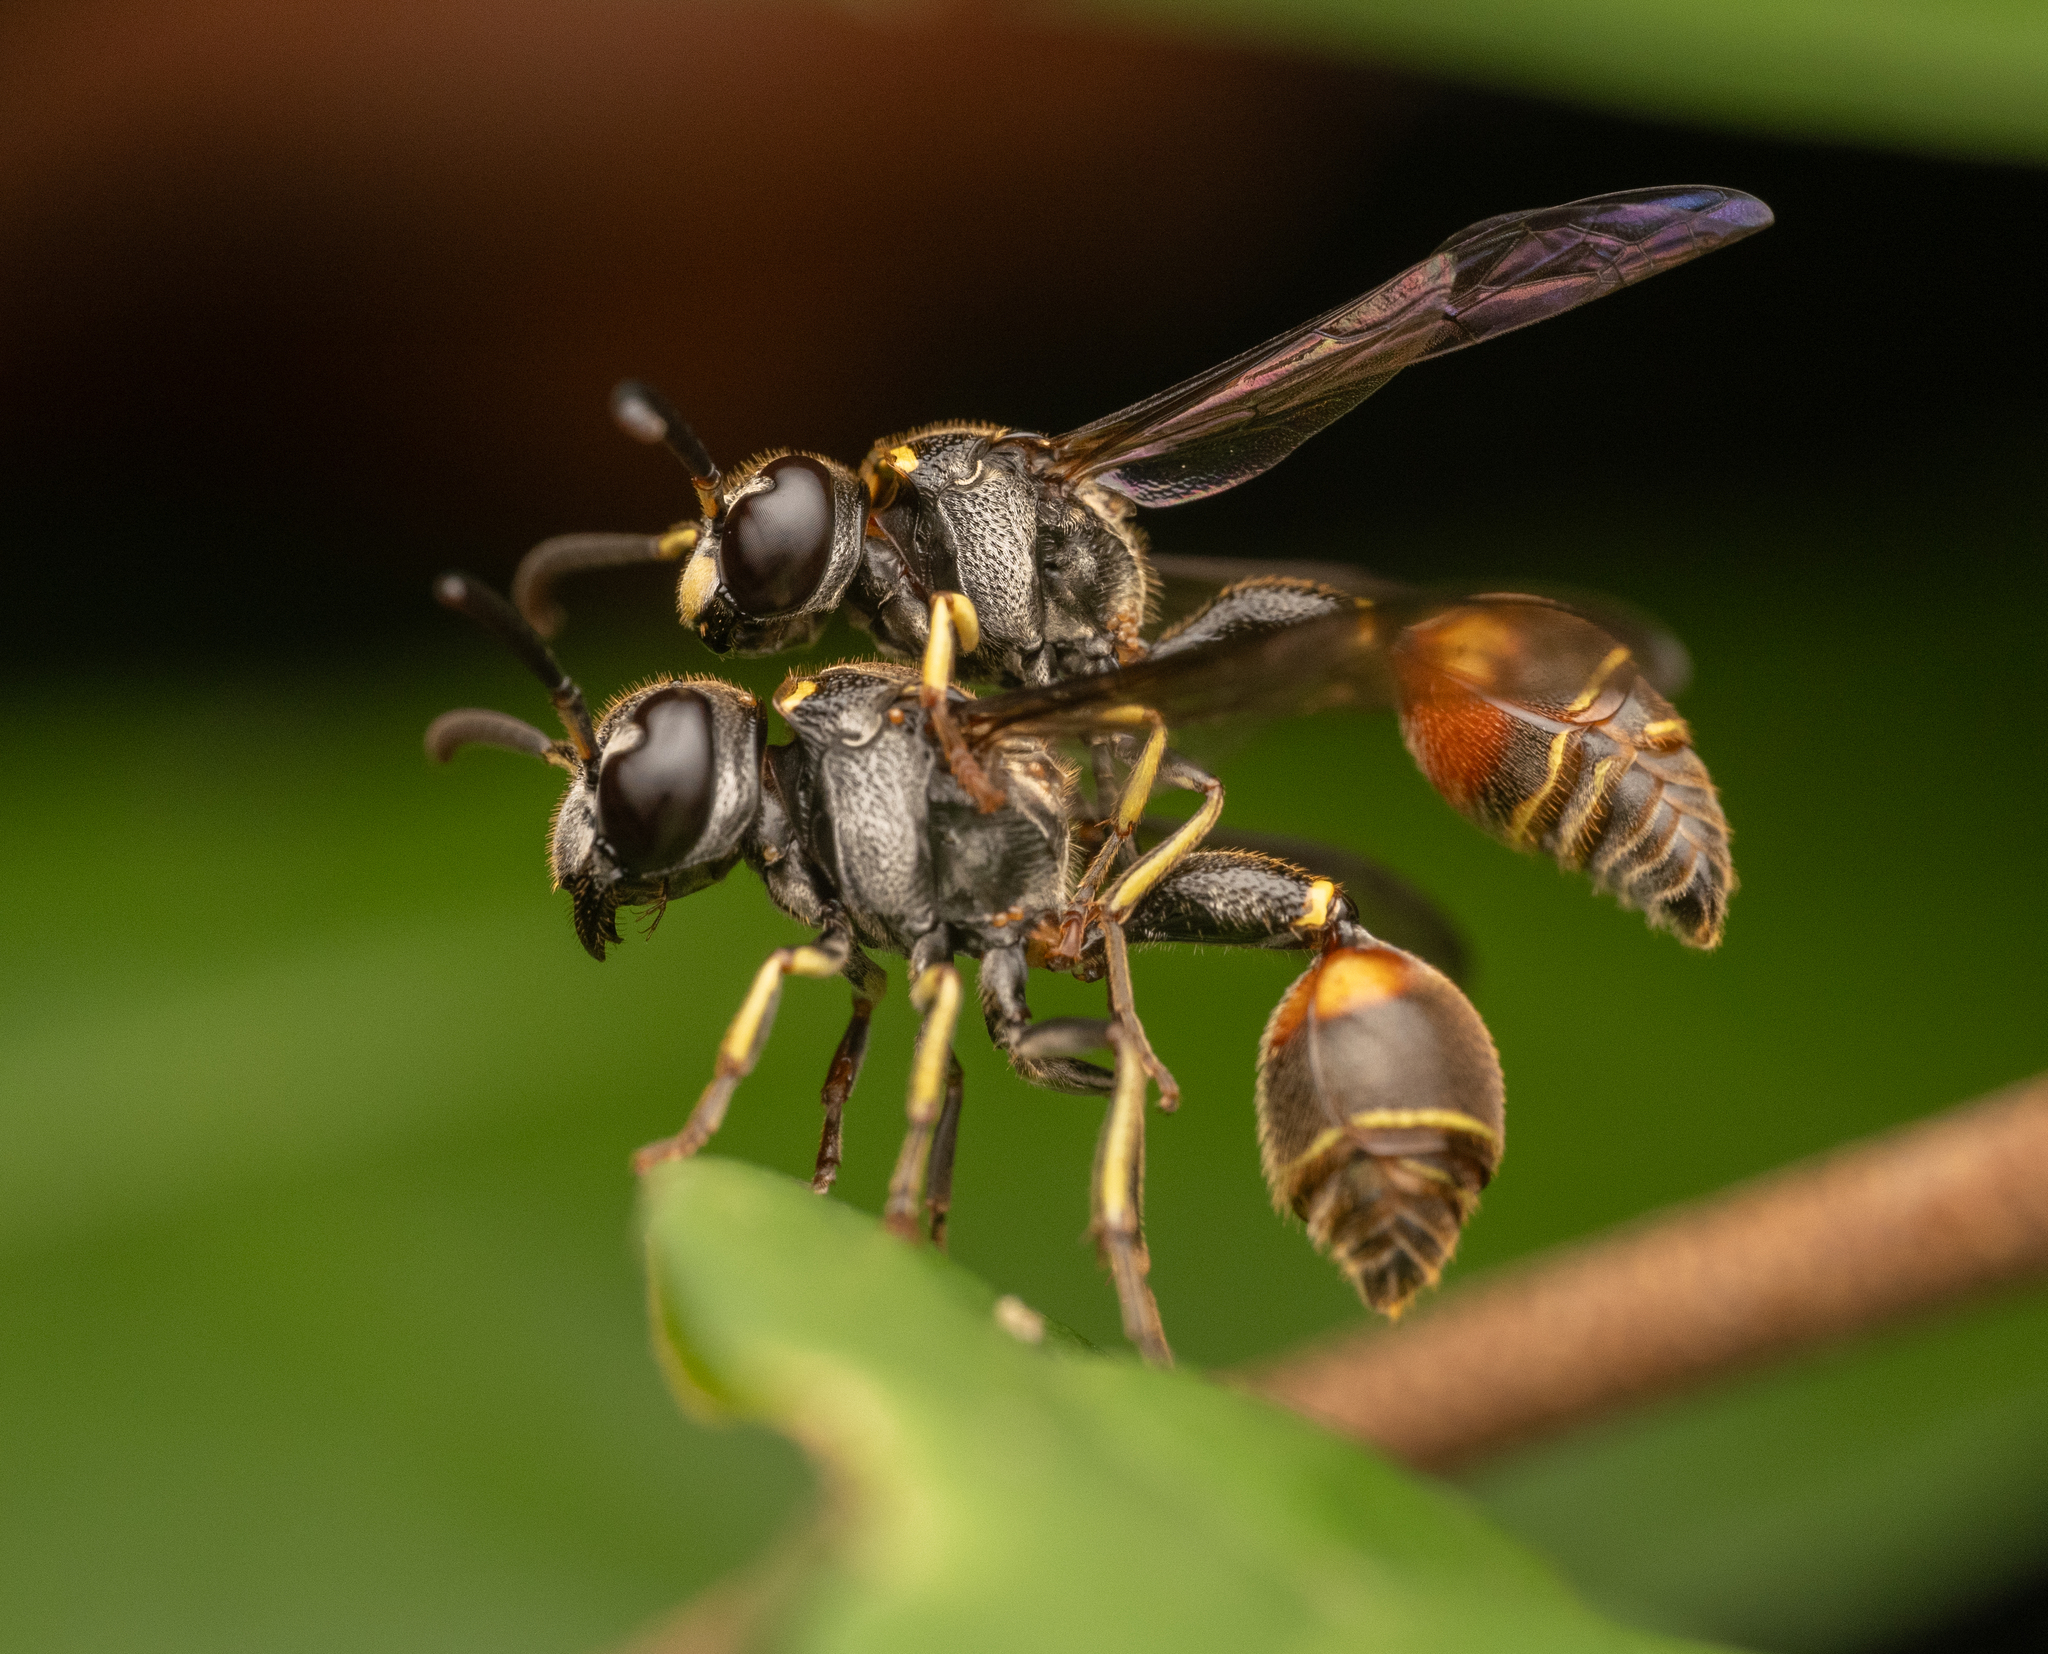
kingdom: Animalia
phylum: Arthropoda
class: Insecta
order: Hymenoptera
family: Eumenidae
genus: Zethus
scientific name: Zethus biglumis
